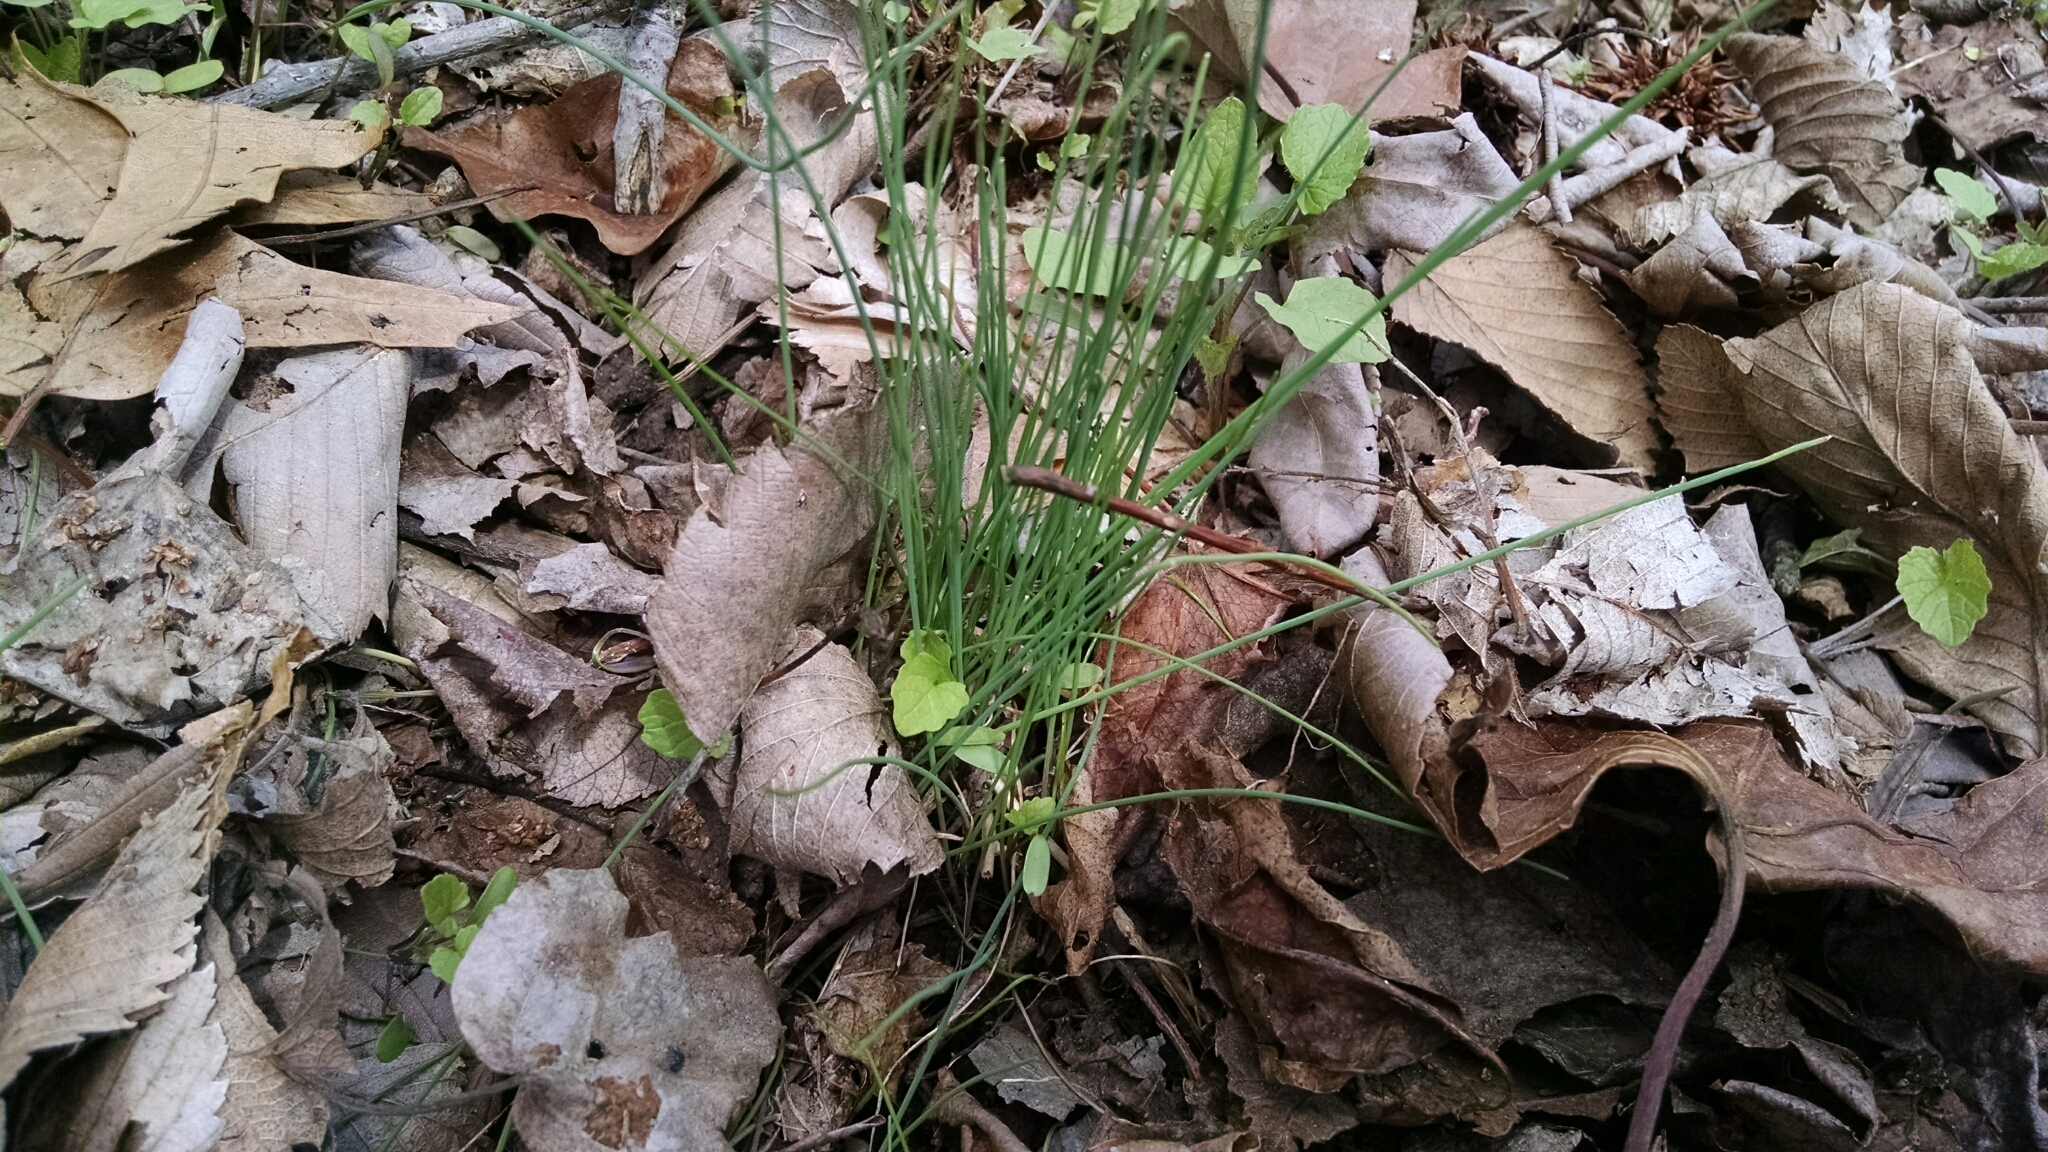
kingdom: Plantae
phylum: Tracheophyta
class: Liliopsida
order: Asparagales
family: Amaryllidaceae
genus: Allium
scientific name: Allium vineale
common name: Crow garlic
